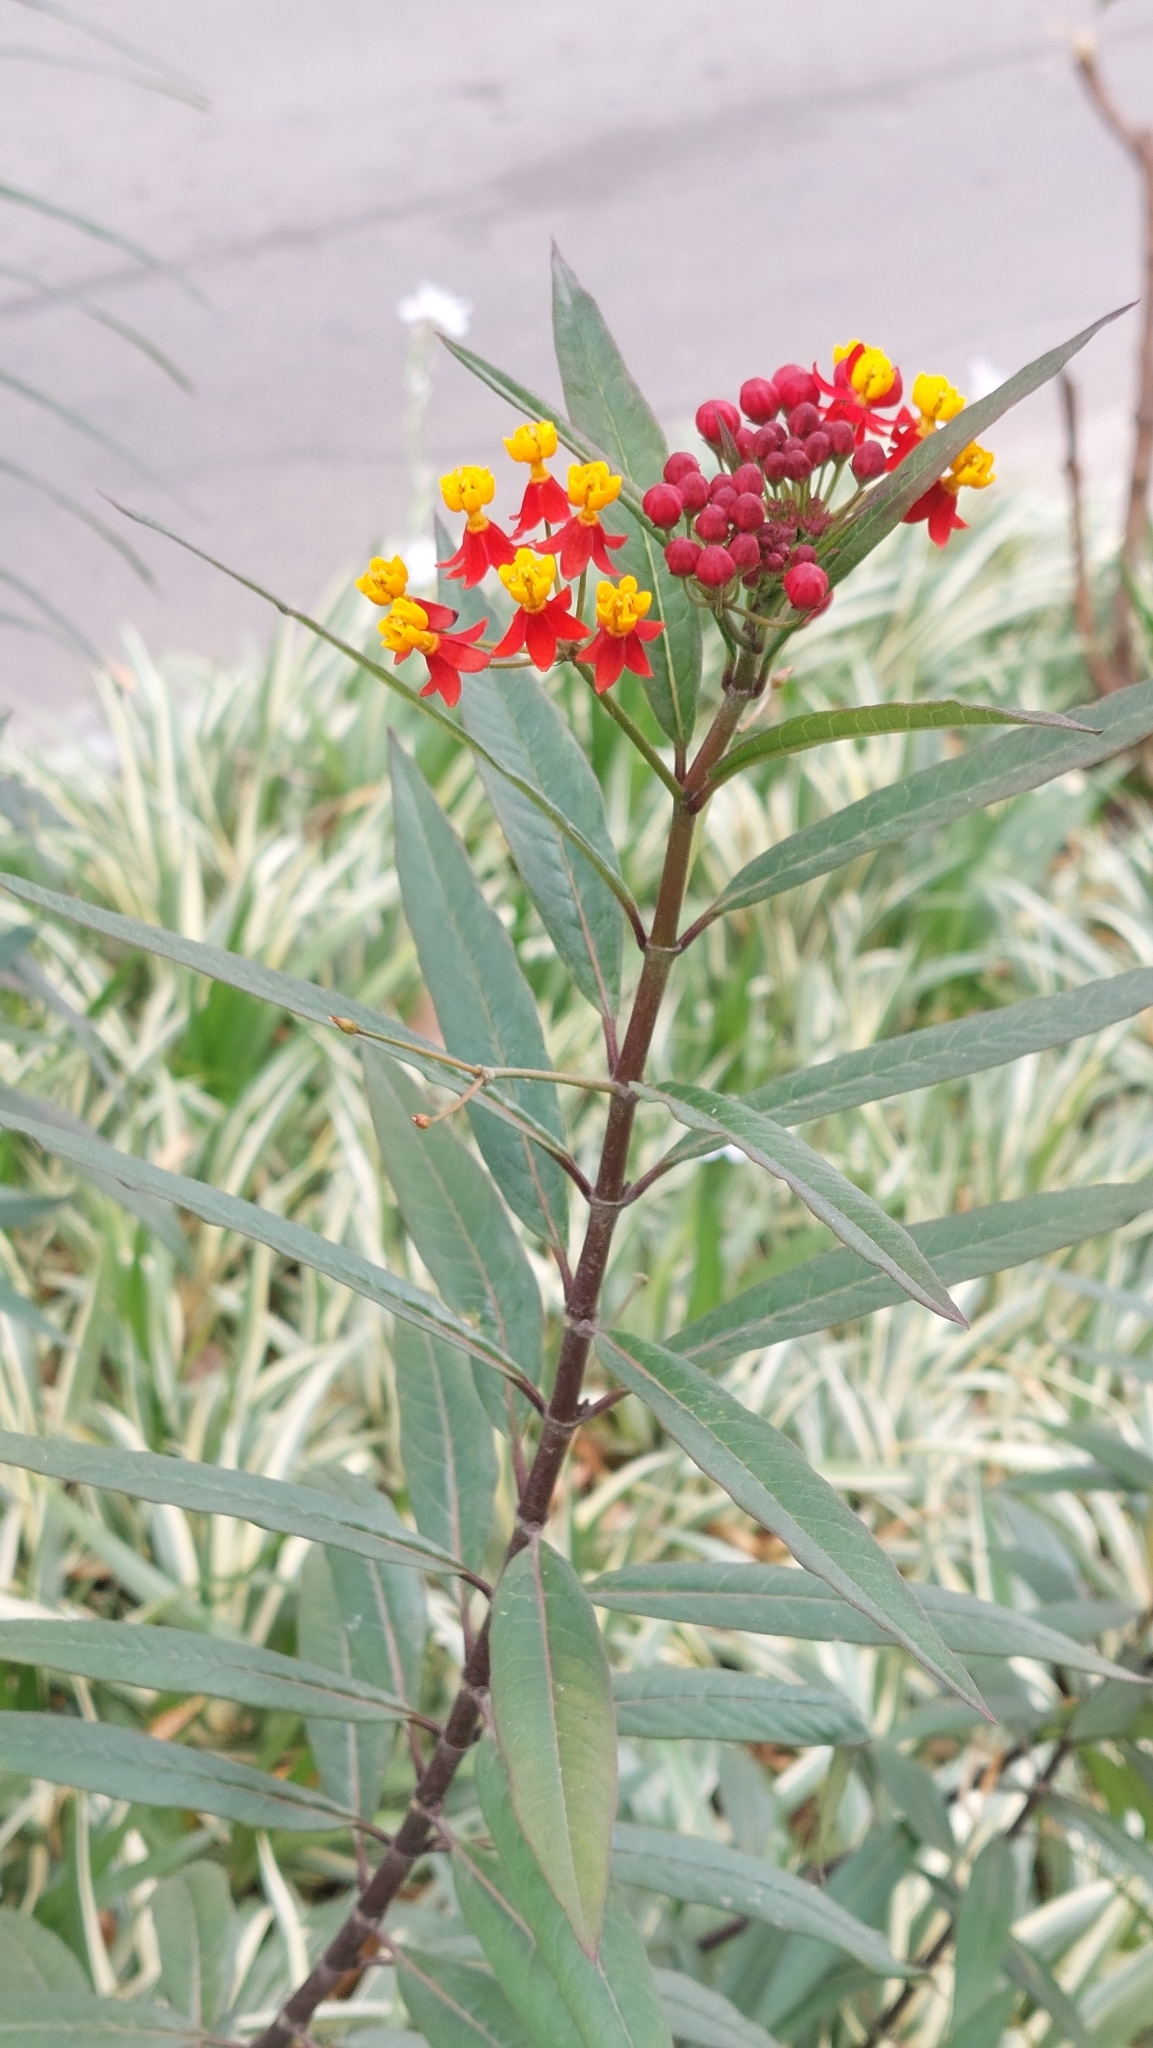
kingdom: Plantae
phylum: Tracheophyta
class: Magnoliopsida
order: Gentianales
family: Apocynaceae
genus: Asclepias
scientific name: Asclepias curassavica
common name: Bloodflower
